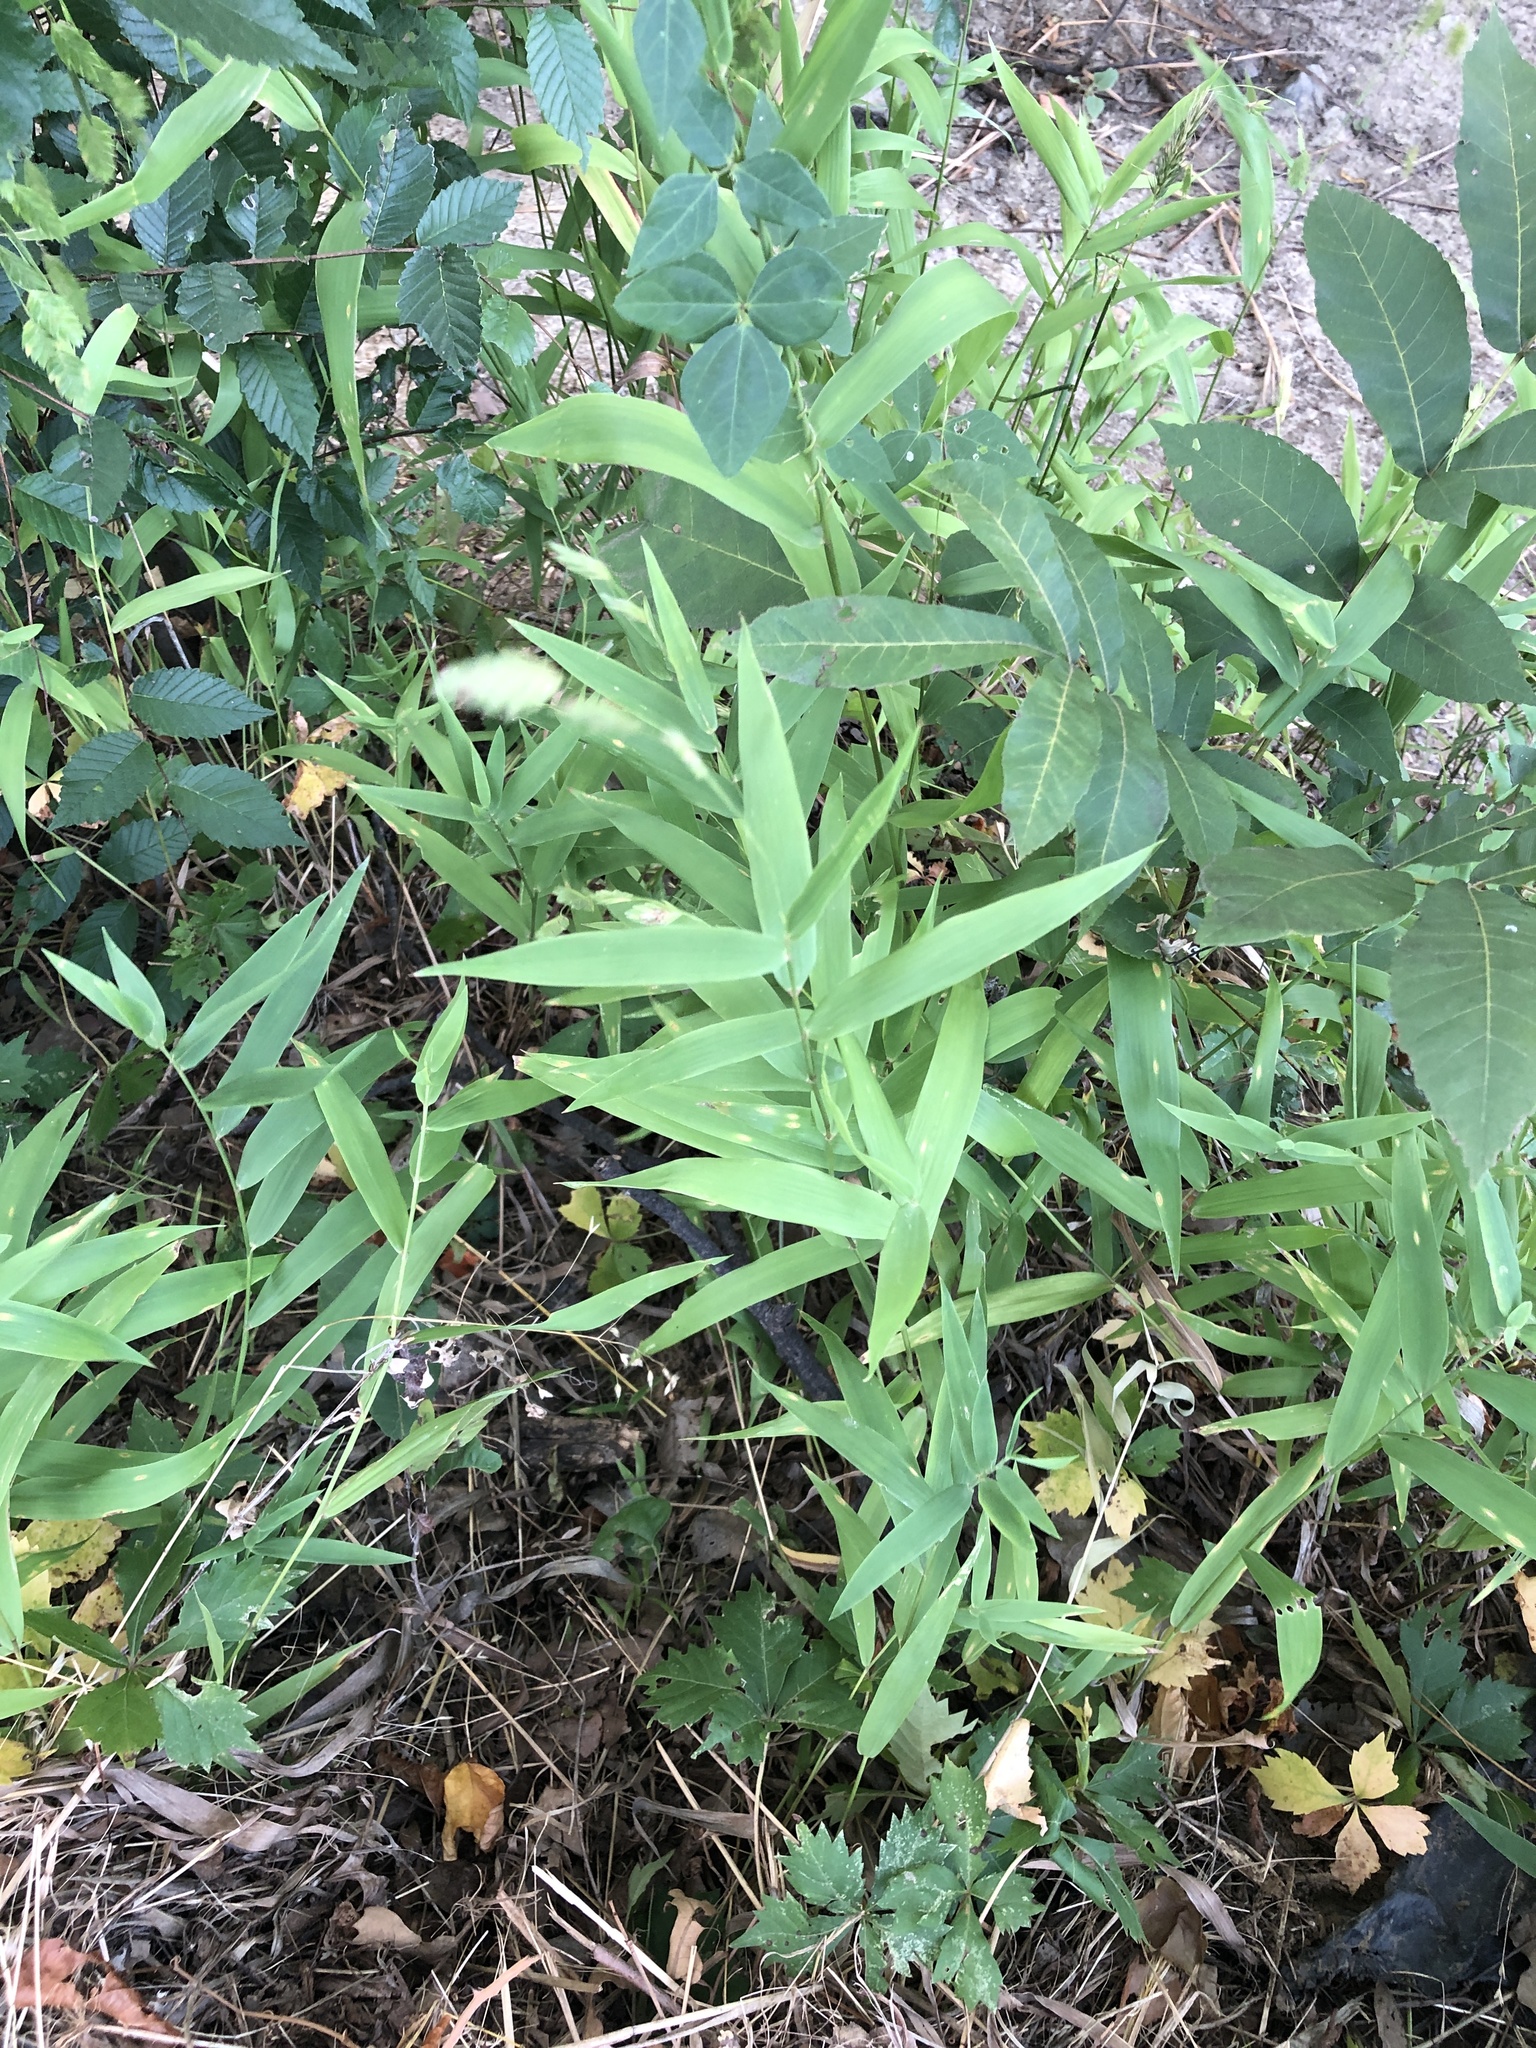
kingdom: Plantae
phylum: Tracheophyta
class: Liliopsida
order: Poales
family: Poaceae
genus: Chasmanthium
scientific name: Chasmanthium latifolium
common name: Broad-leaved chasmanthium
